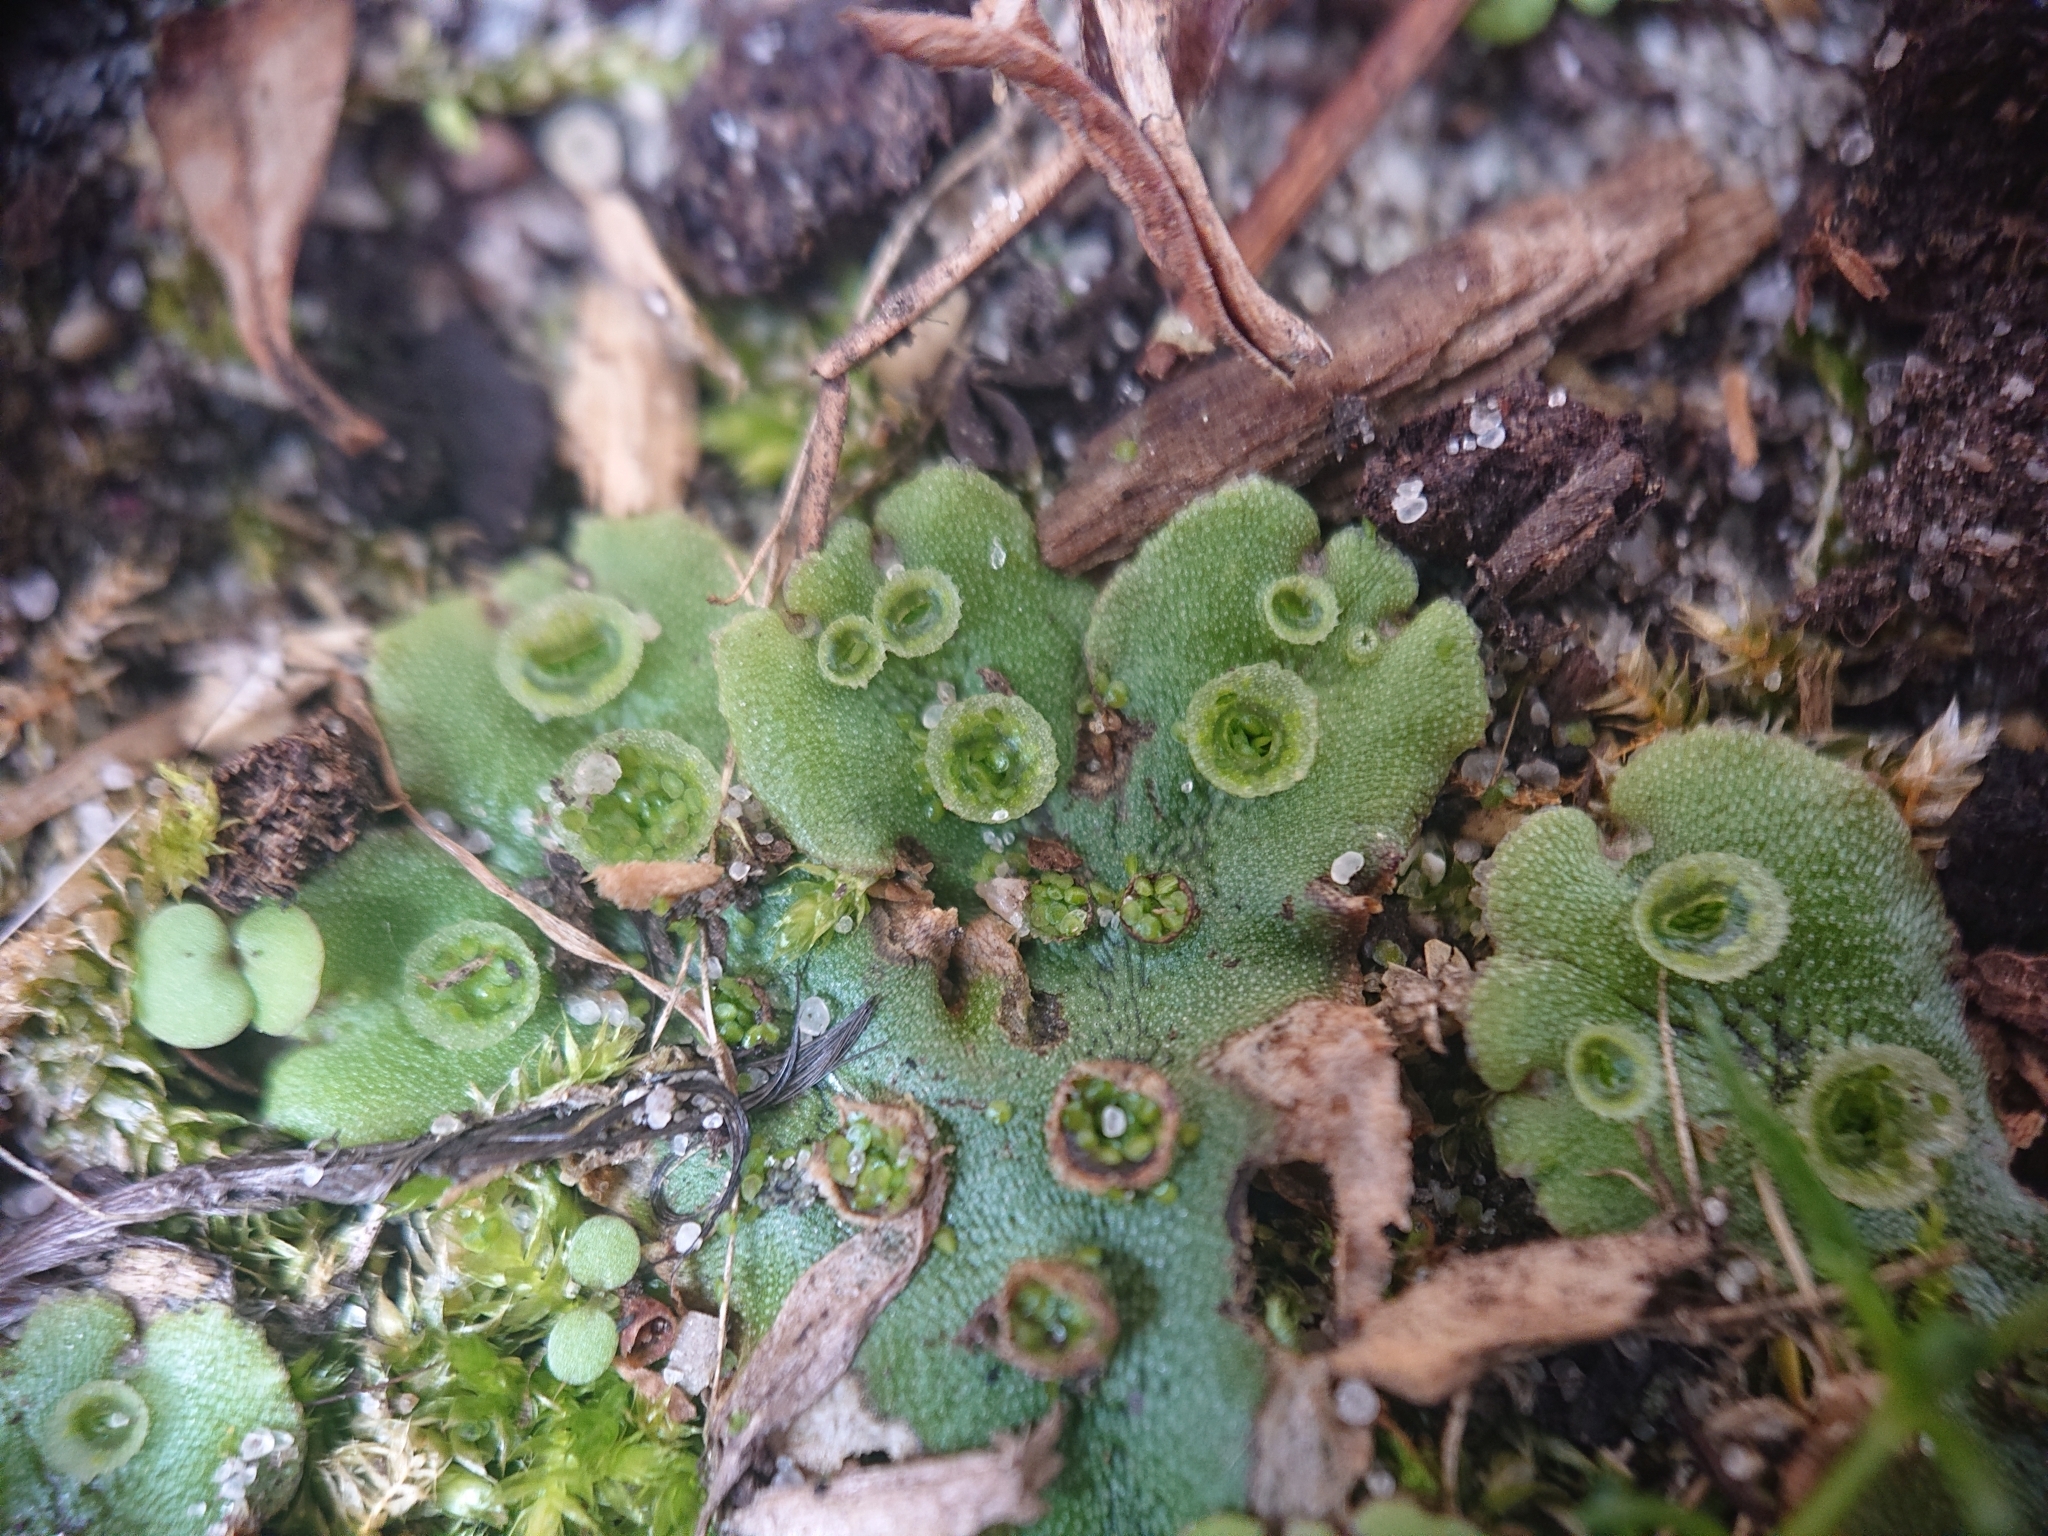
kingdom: Plantae
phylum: Marchantiophyta
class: Marchantiopsida
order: Marchantiales
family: Marchantiaceae
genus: Marchantia
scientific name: Marchantia polymorpha
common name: Common liverwort
